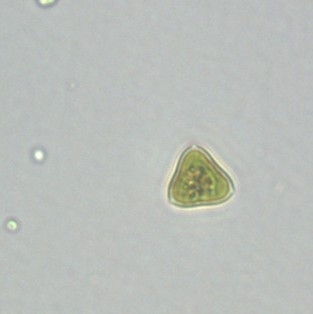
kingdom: Plantae
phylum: Chlorophyta
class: Chlorophyceae
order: Sphaeropleales
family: Hydrodictyaceae
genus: Tetraedron
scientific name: Tetraedron triangulare
